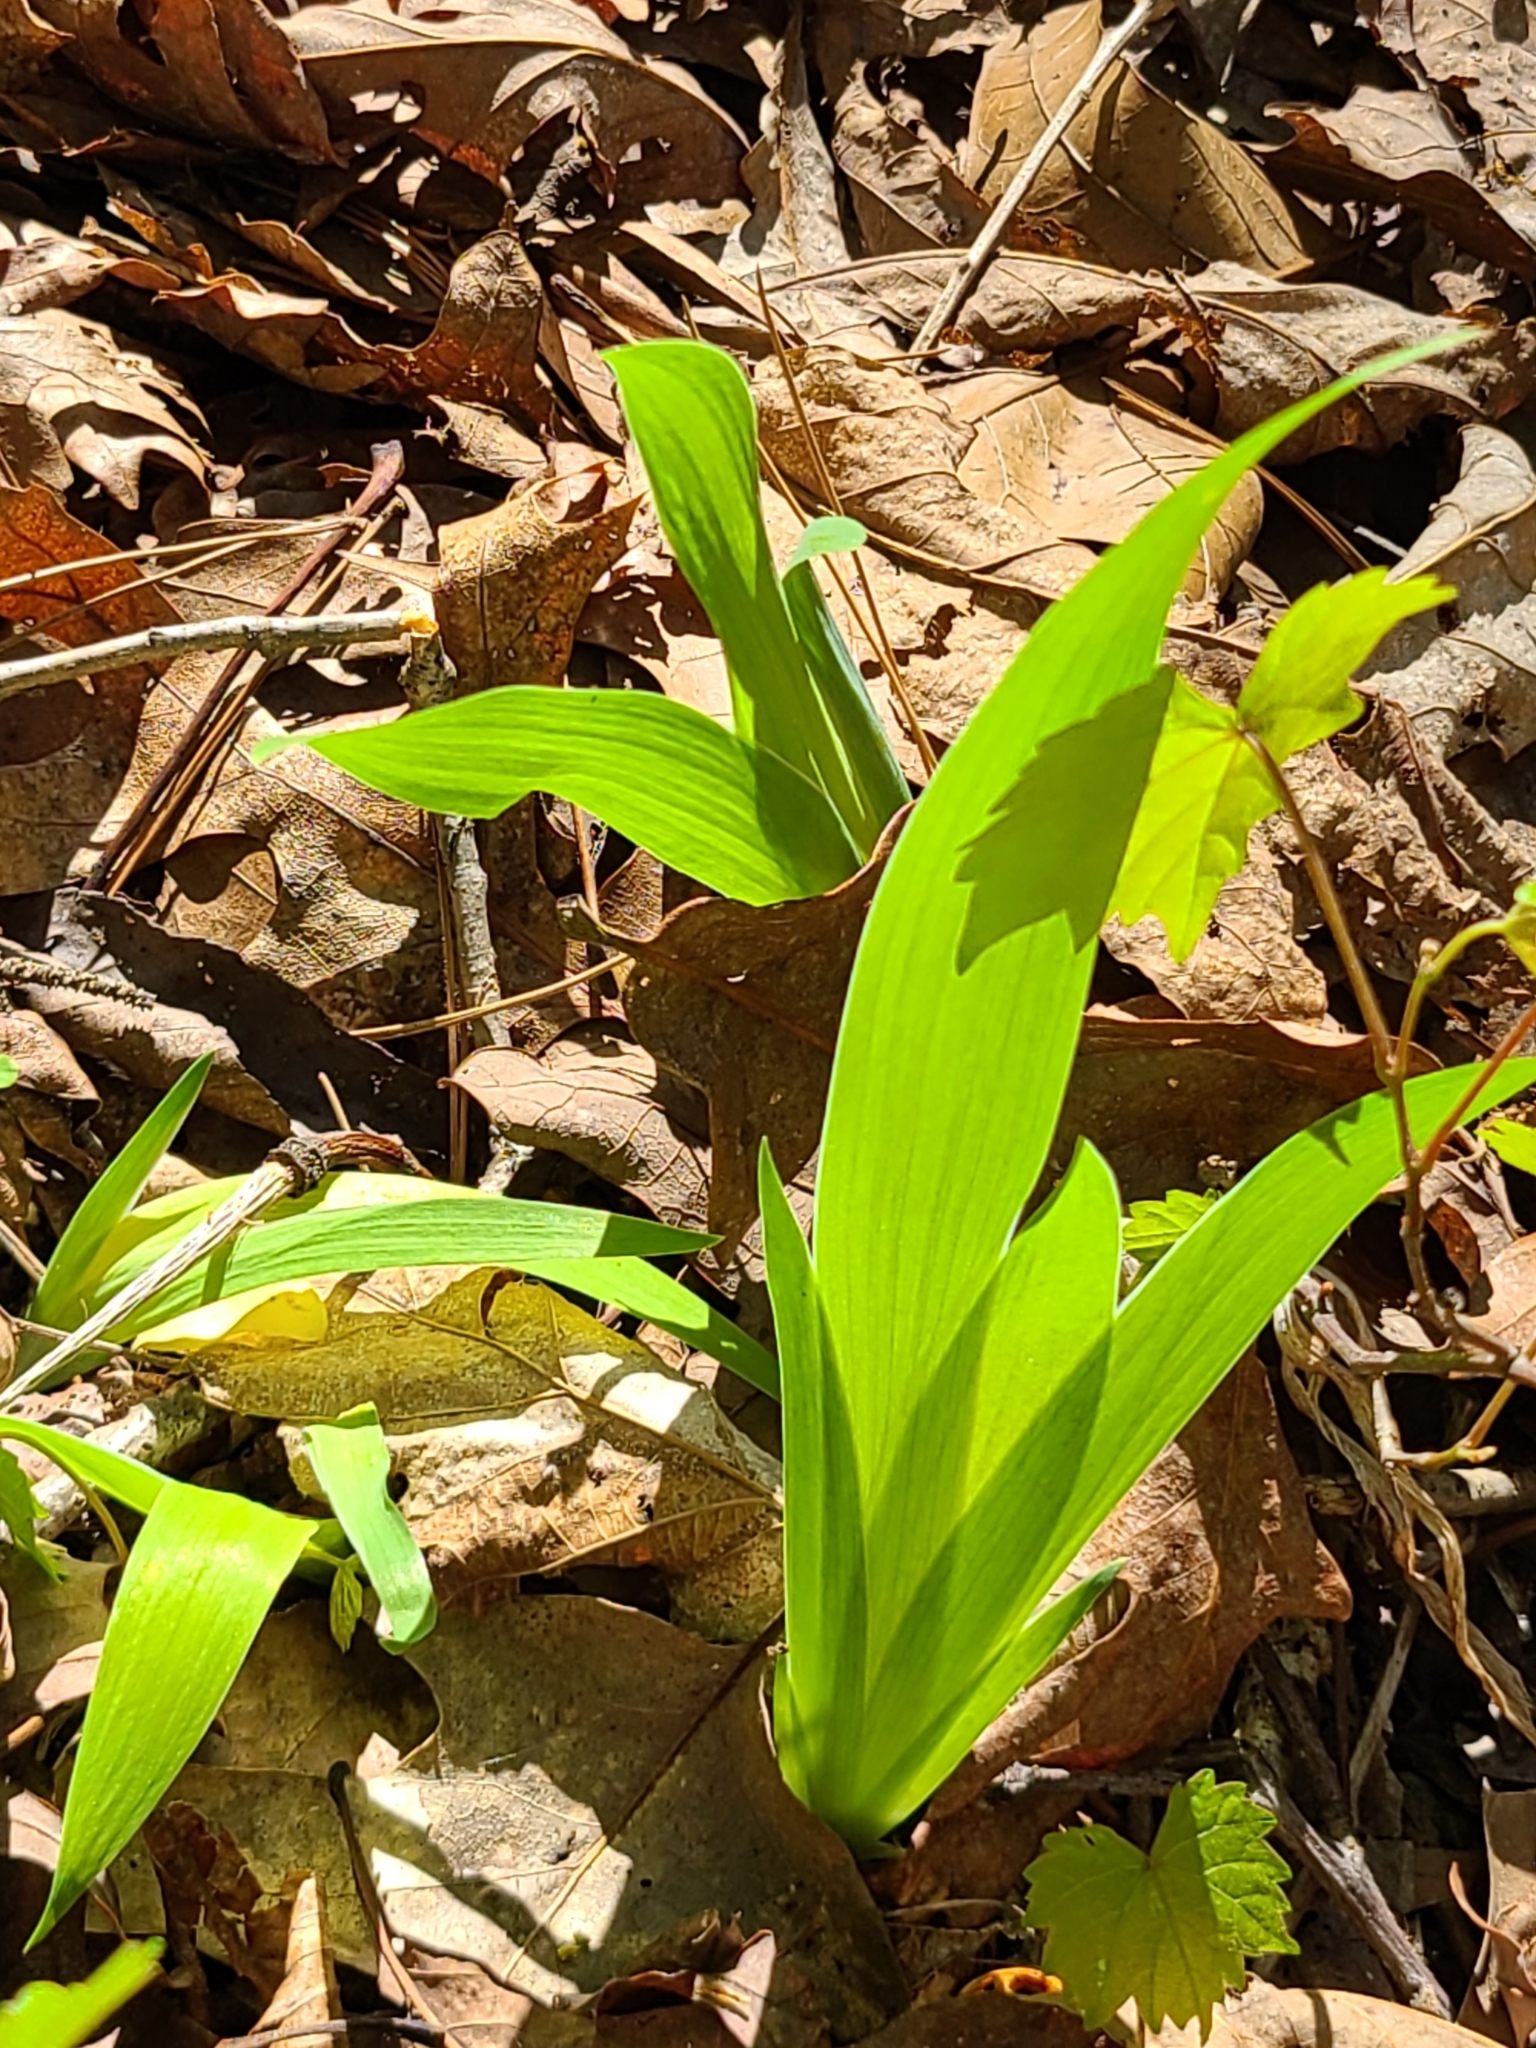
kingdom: Plantae
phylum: Tracheophyta
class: Liliopsida
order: Asparagales
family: Iridaceae
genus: Iris
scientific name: Iris cristata
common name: Crested iris
